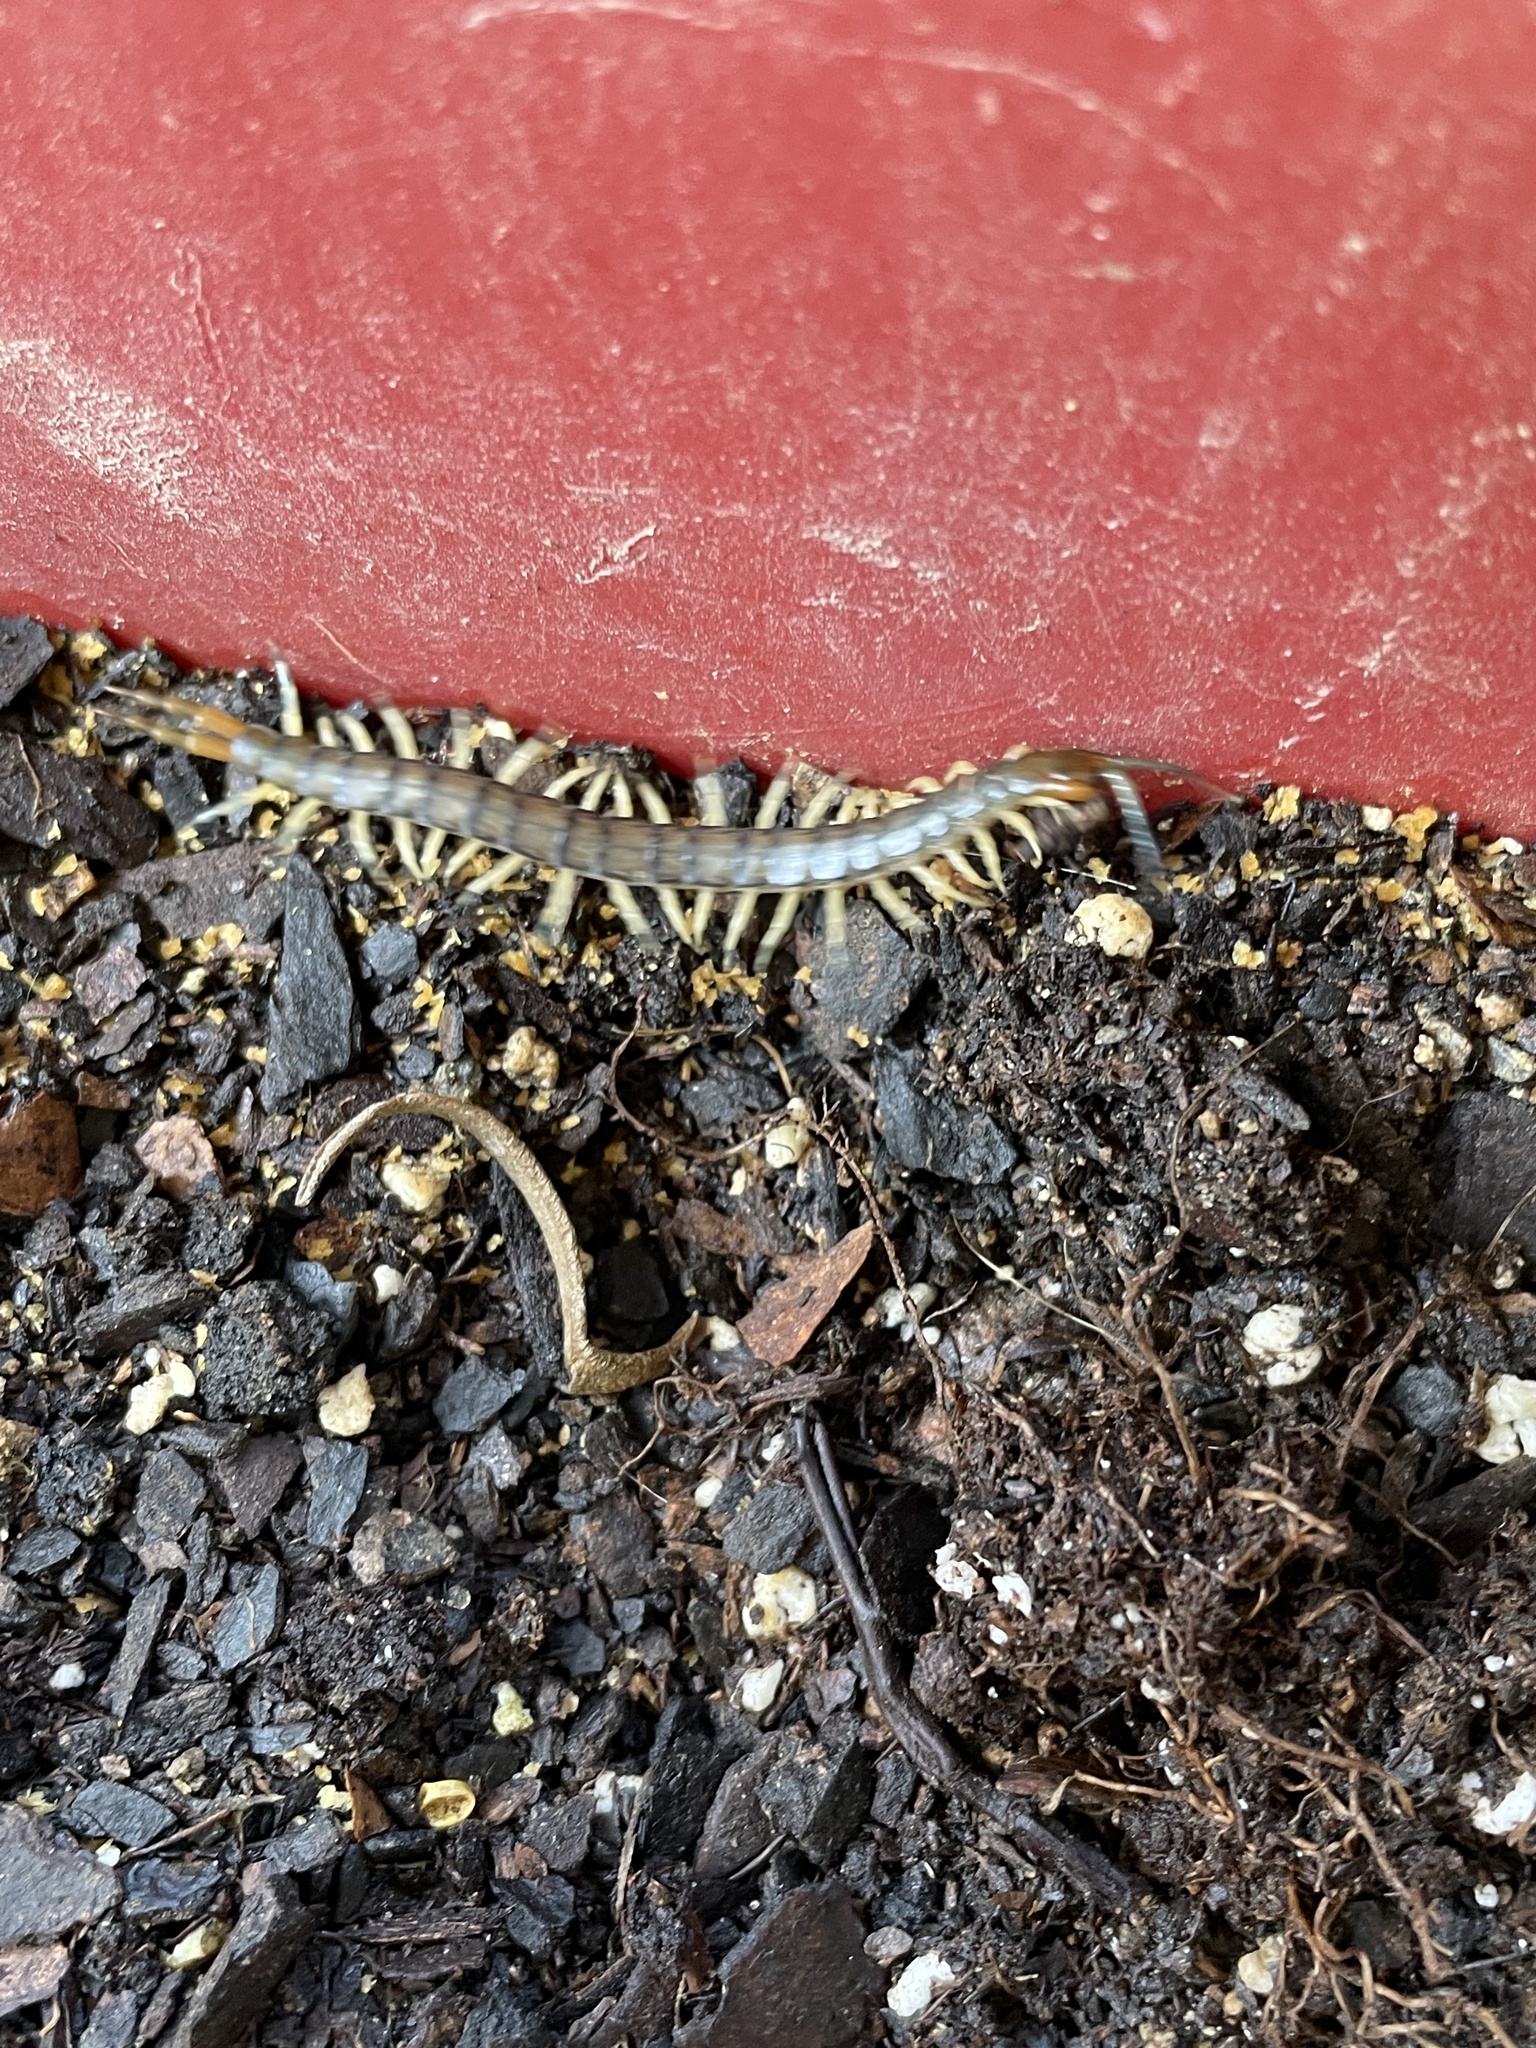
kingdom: Animalia
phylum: Arthropoda
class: Chilopoda
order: Scolopendromorpha
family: Scolopendridae
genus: Hemiscolopendra
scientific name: Hemiscolopendra marginata
